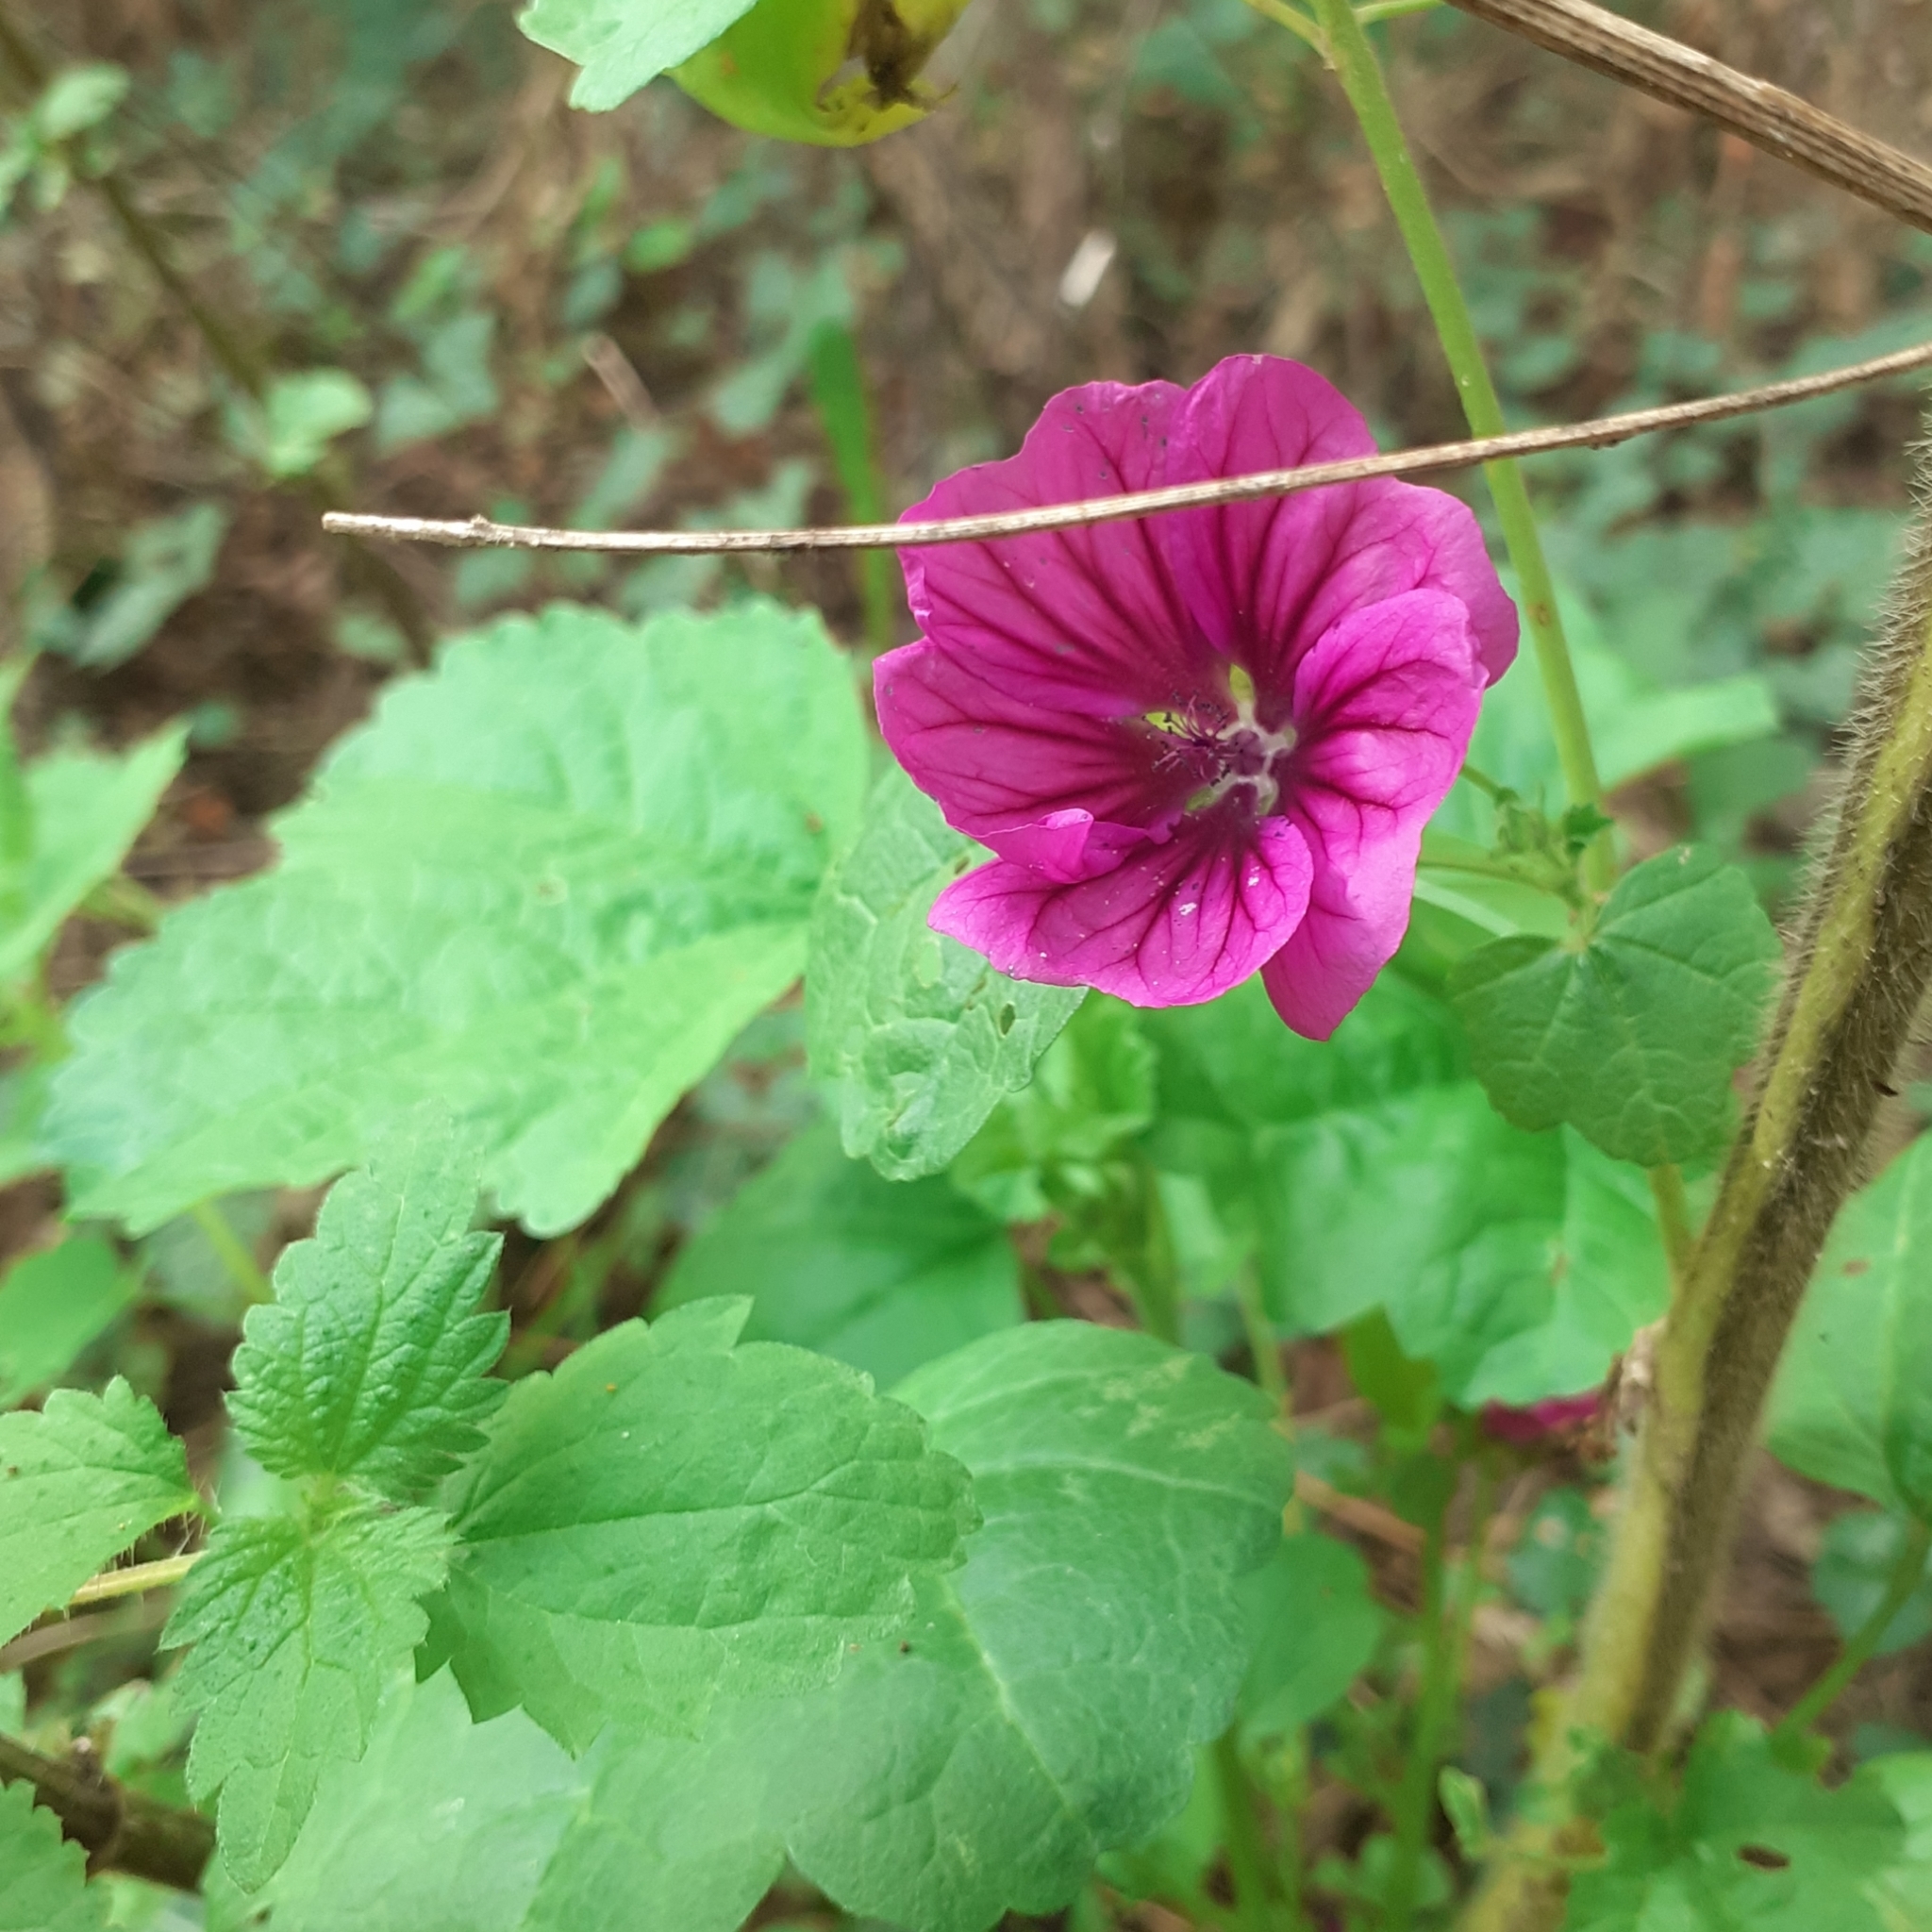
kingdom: Plantae
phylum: Tracheophyta
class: Magnoliopsida
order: Malvales
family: Malvaceae
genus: Malva
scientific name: Malva sylvestris
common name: Common mallow
